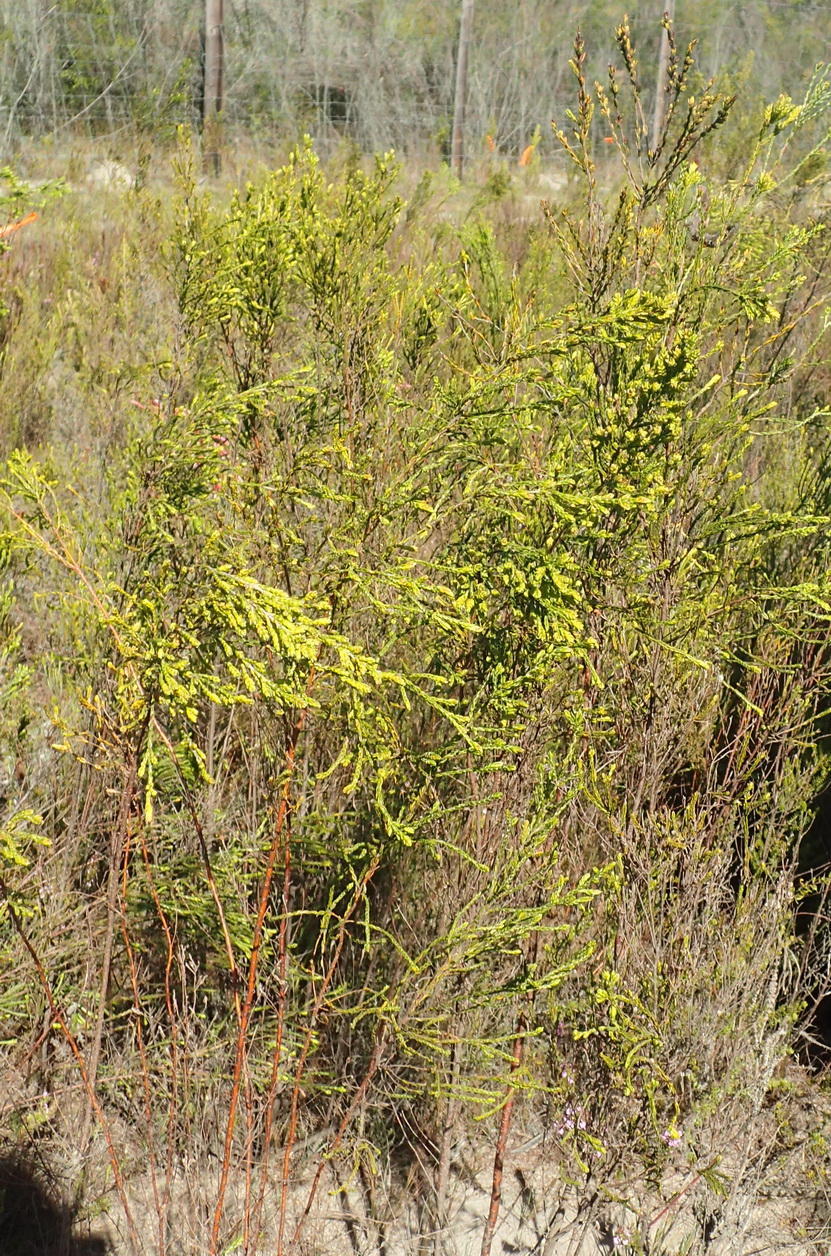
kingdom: Plantae
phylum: Tracheophyta
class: Magnoliopsida
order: Malvales
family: Thymelaeaceae
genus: Passerina
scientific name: Passerina rigida
